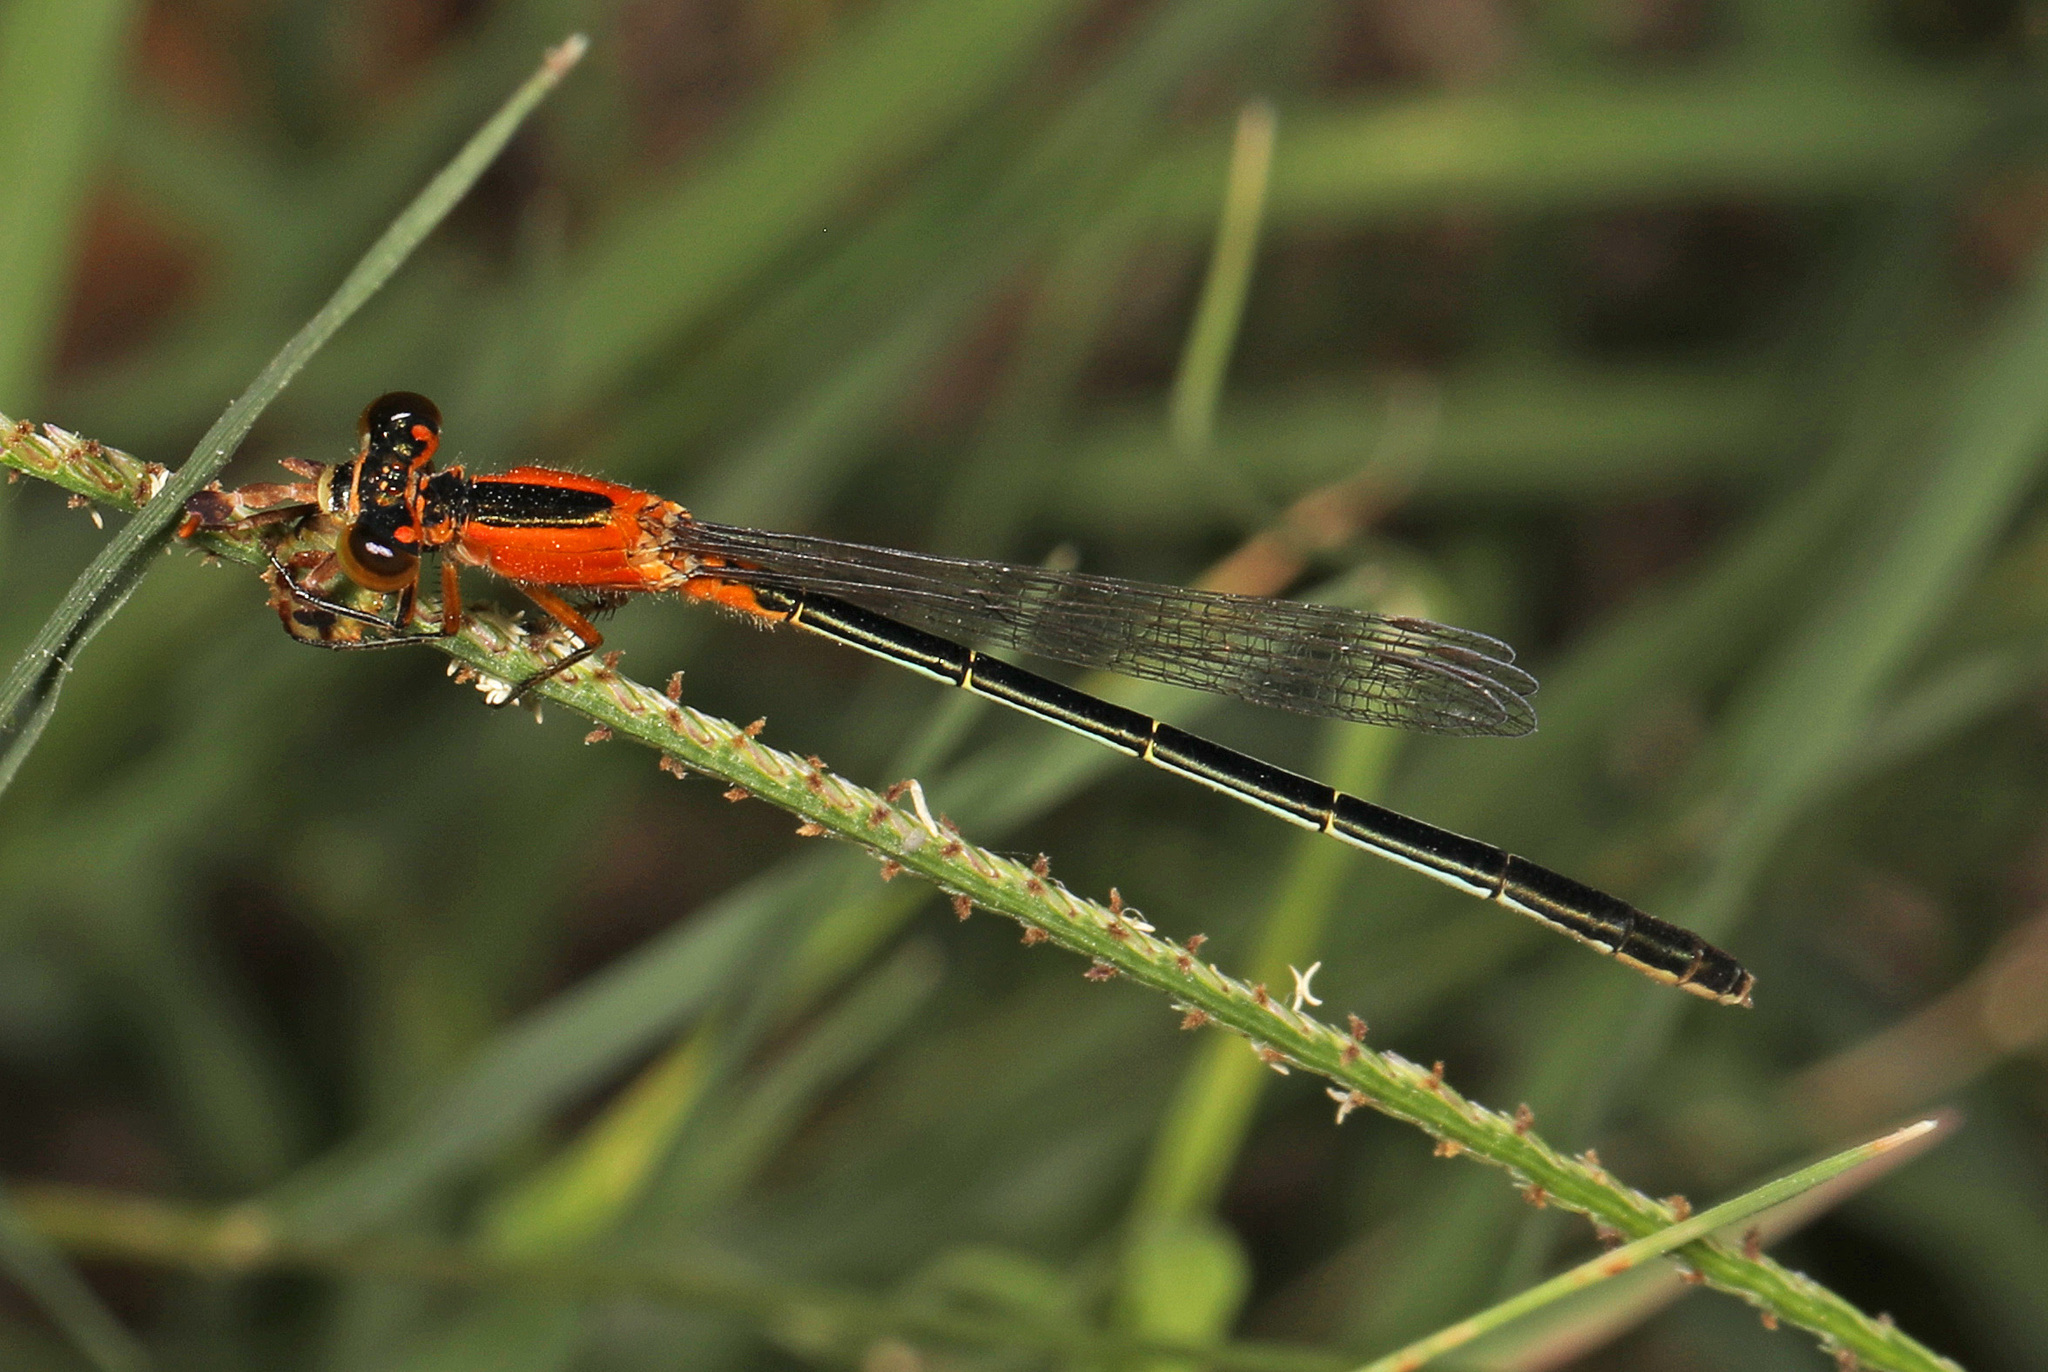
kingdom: Animalia
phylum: Arthropoda
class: Insecta
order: Odonata
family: Coenagrionidae
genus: Ischnura
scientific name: Ischnura ramburii
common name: Rambur's forktail
